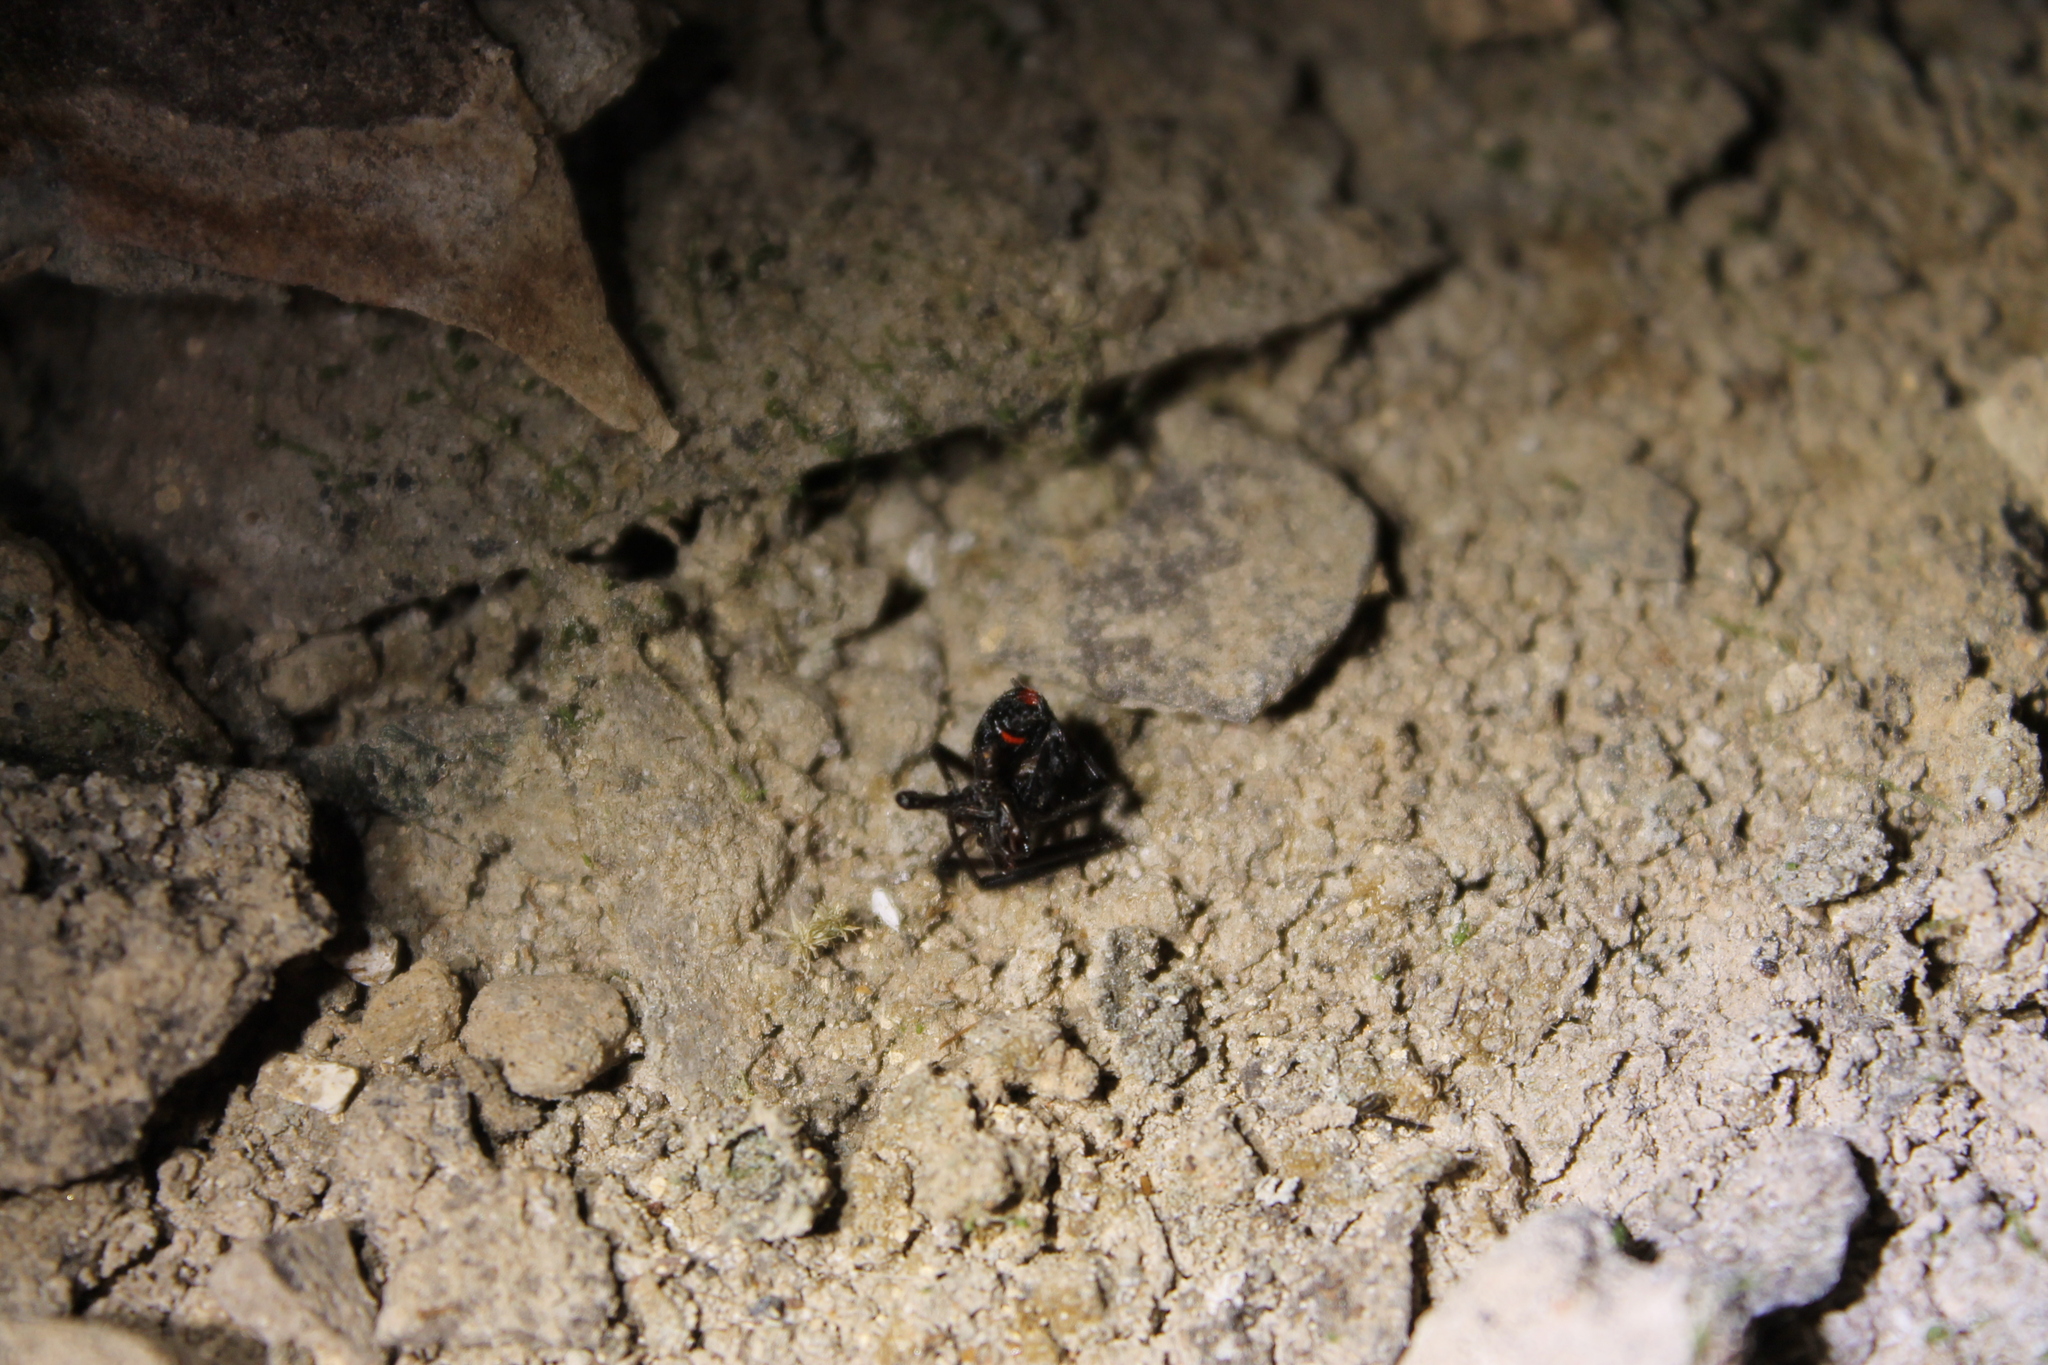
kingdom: Animalia
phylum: Arthropoda
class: Arachnida
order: Araneae
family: Theridiidae
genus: Latrodectus
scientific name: Latrodectus variolus
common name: Northern black widow
